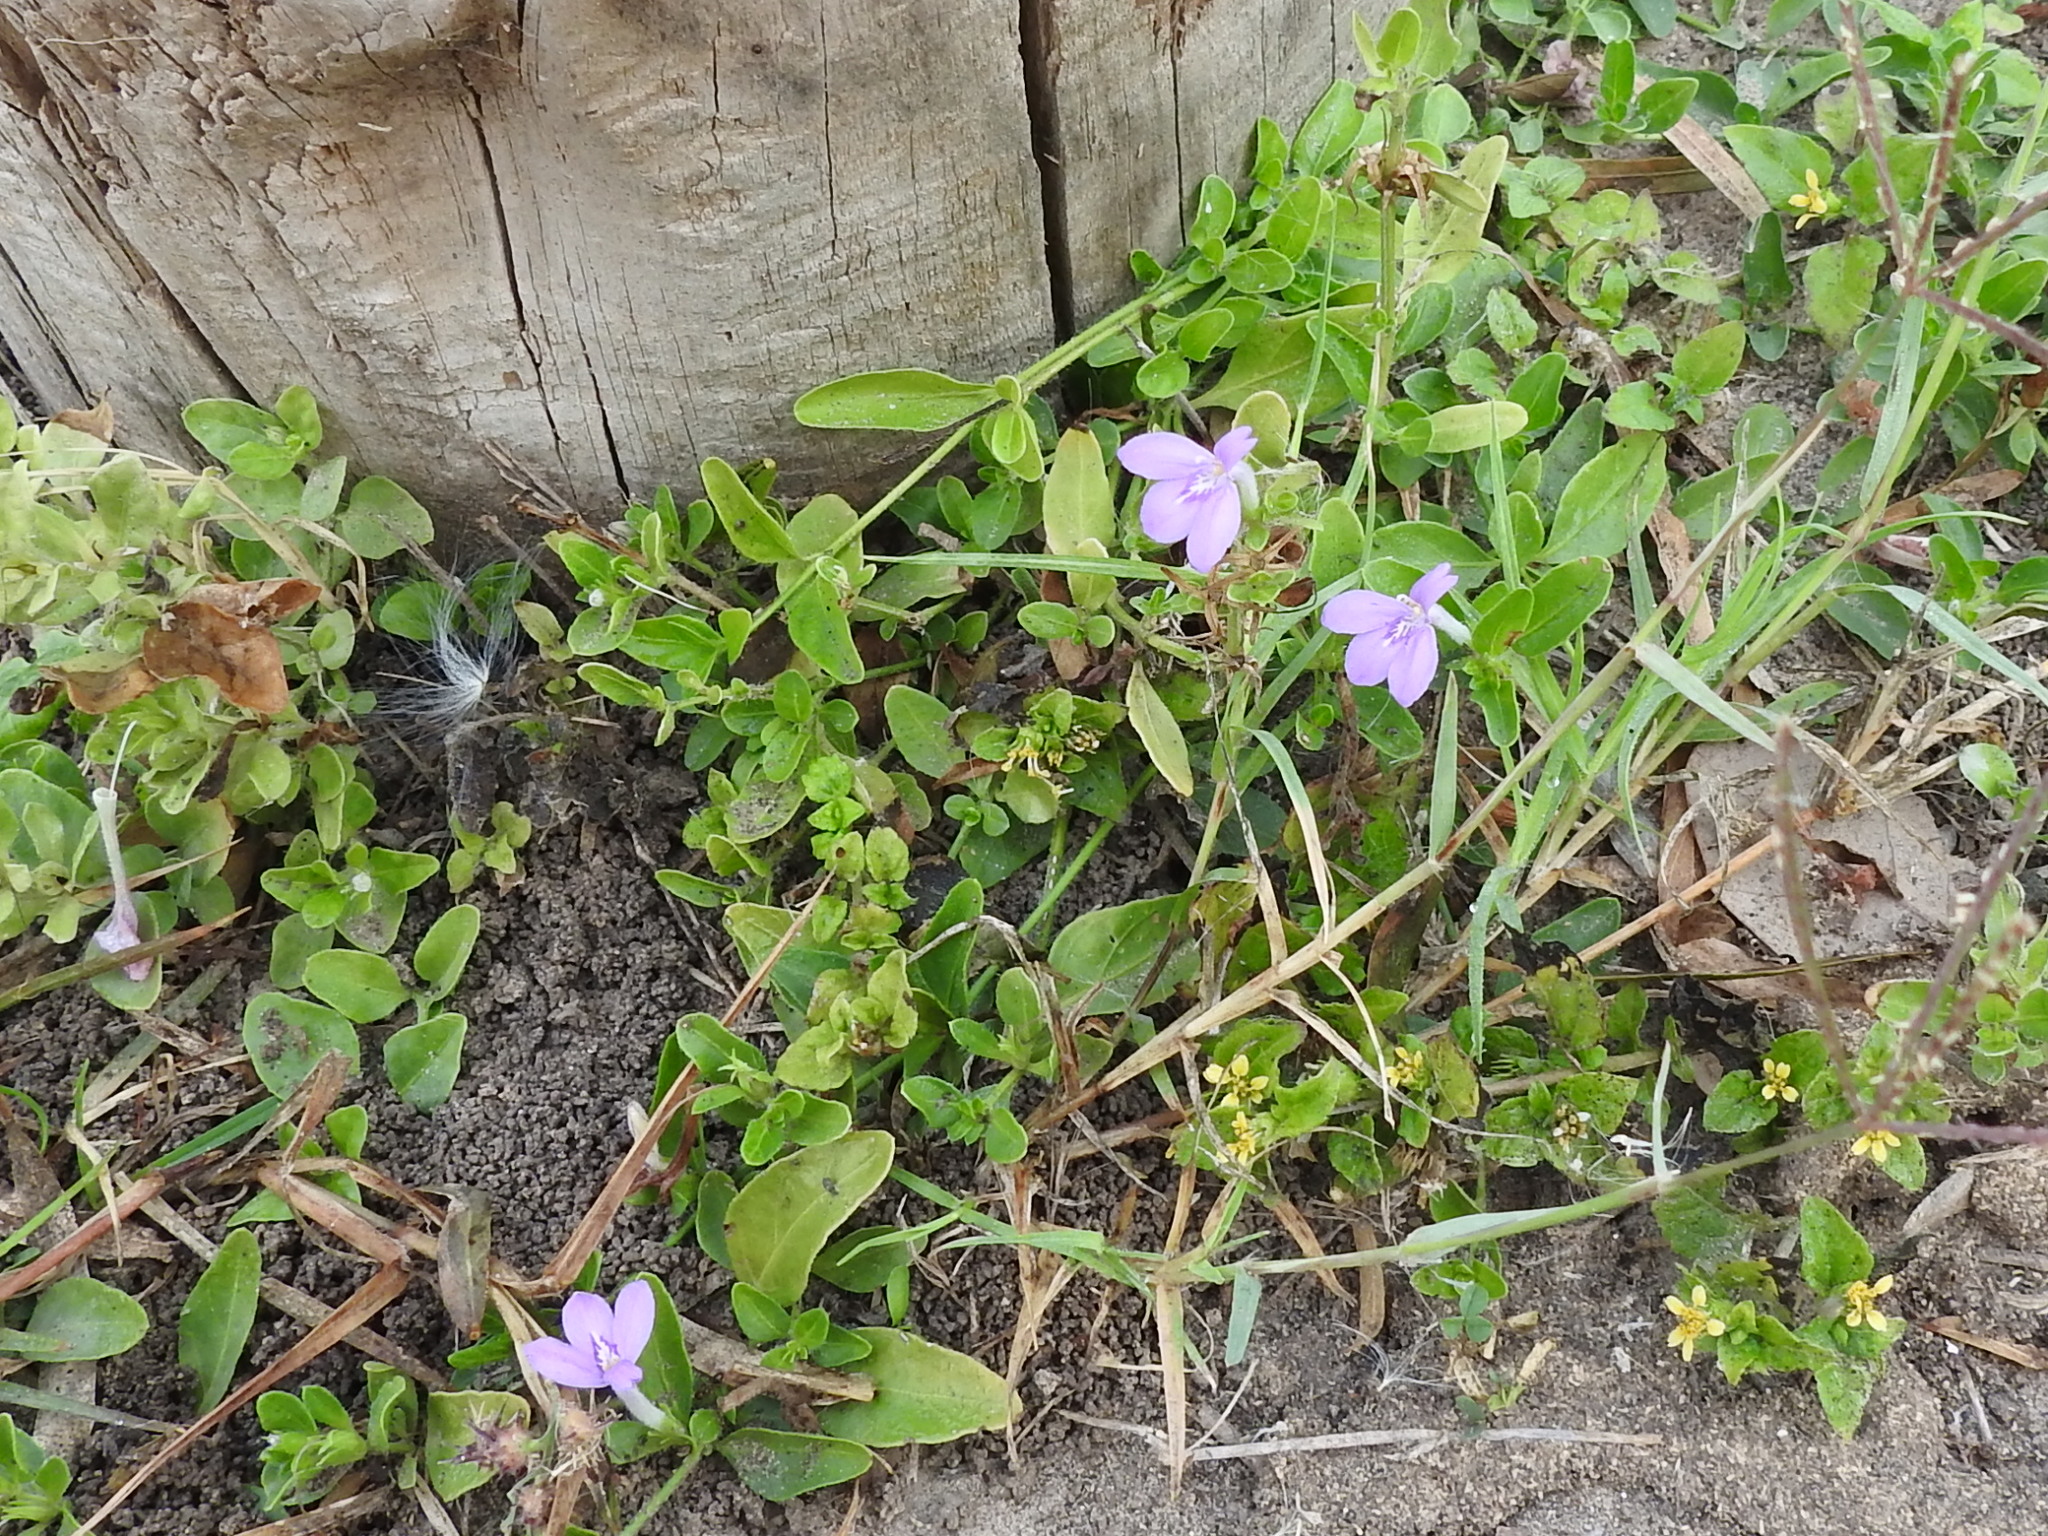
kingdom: Plantae
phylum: Tracheophyta
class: Magnoliopsida
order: Lamiales
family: Acanthaceae
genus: Justicia
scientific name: Justicia pilosella
